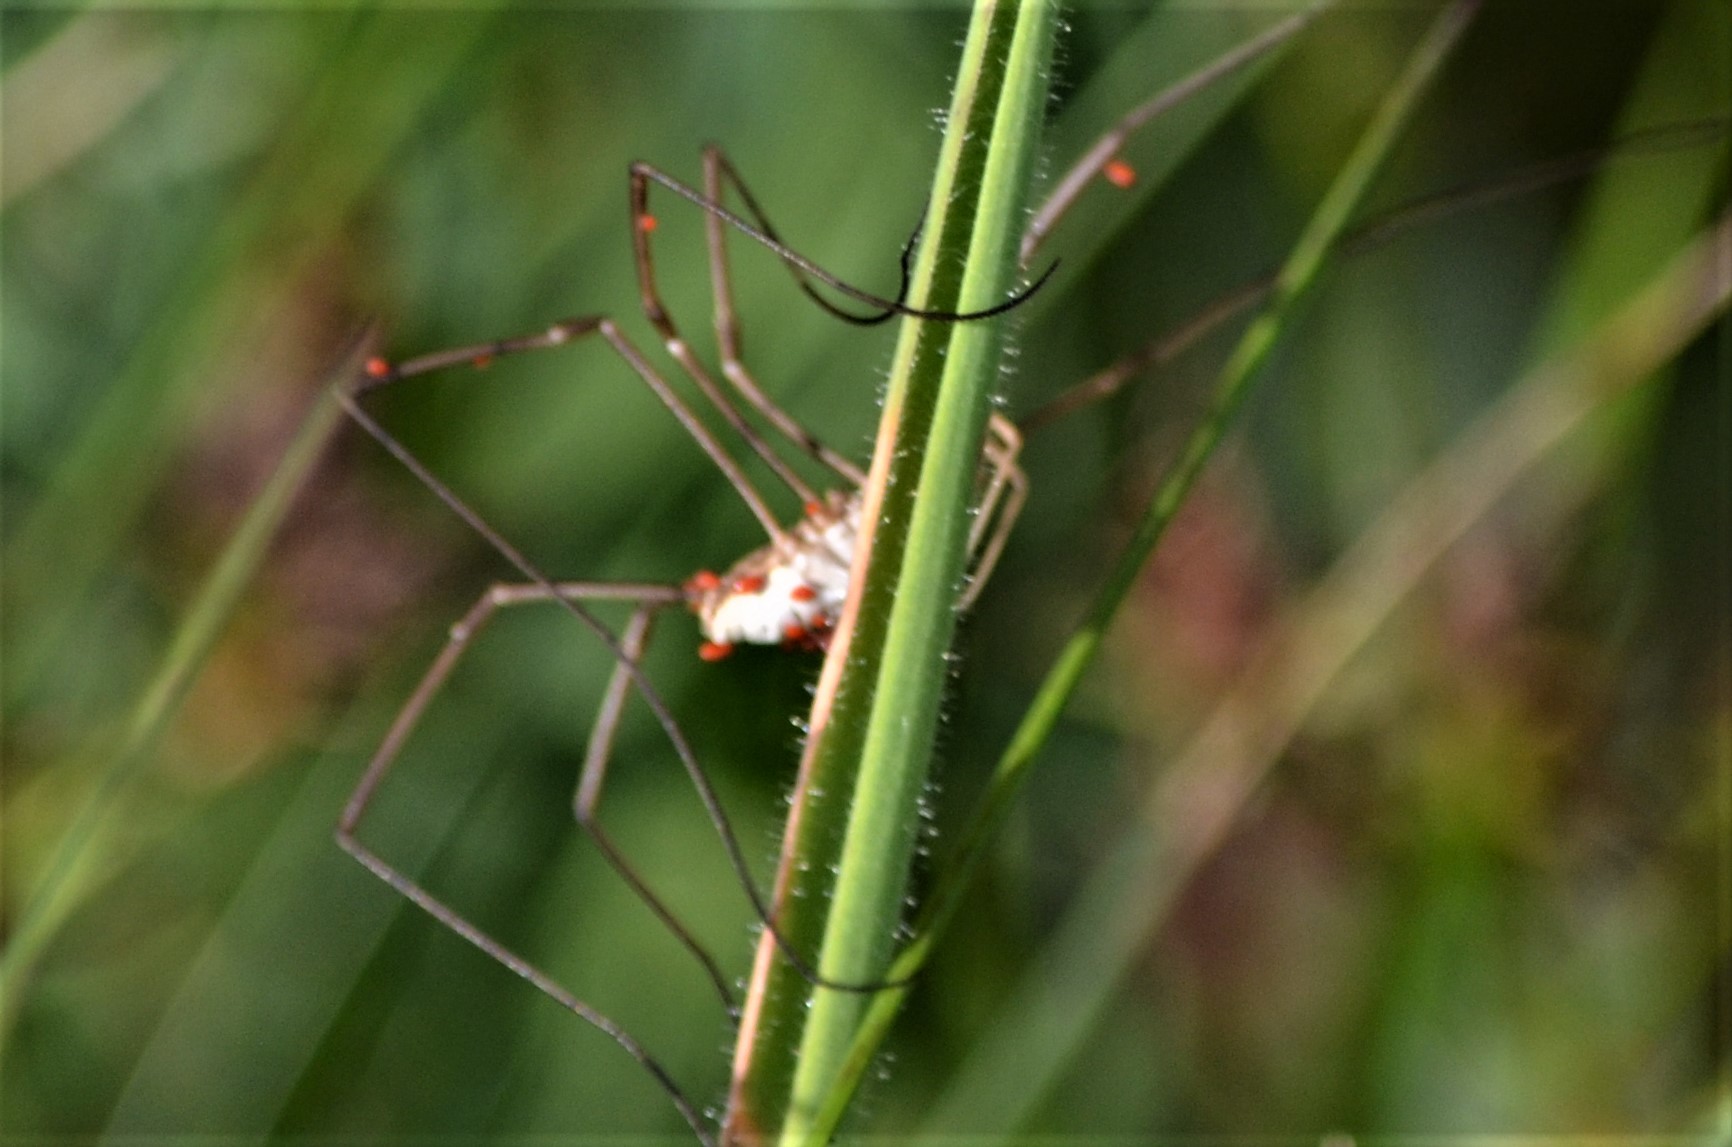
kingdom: Animalia
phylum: Arthropoda
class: Arachnida
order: Opiliones
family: Phalangiidae
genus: Phalangium
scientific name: Phalangium opilio
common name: Daddy longleg
